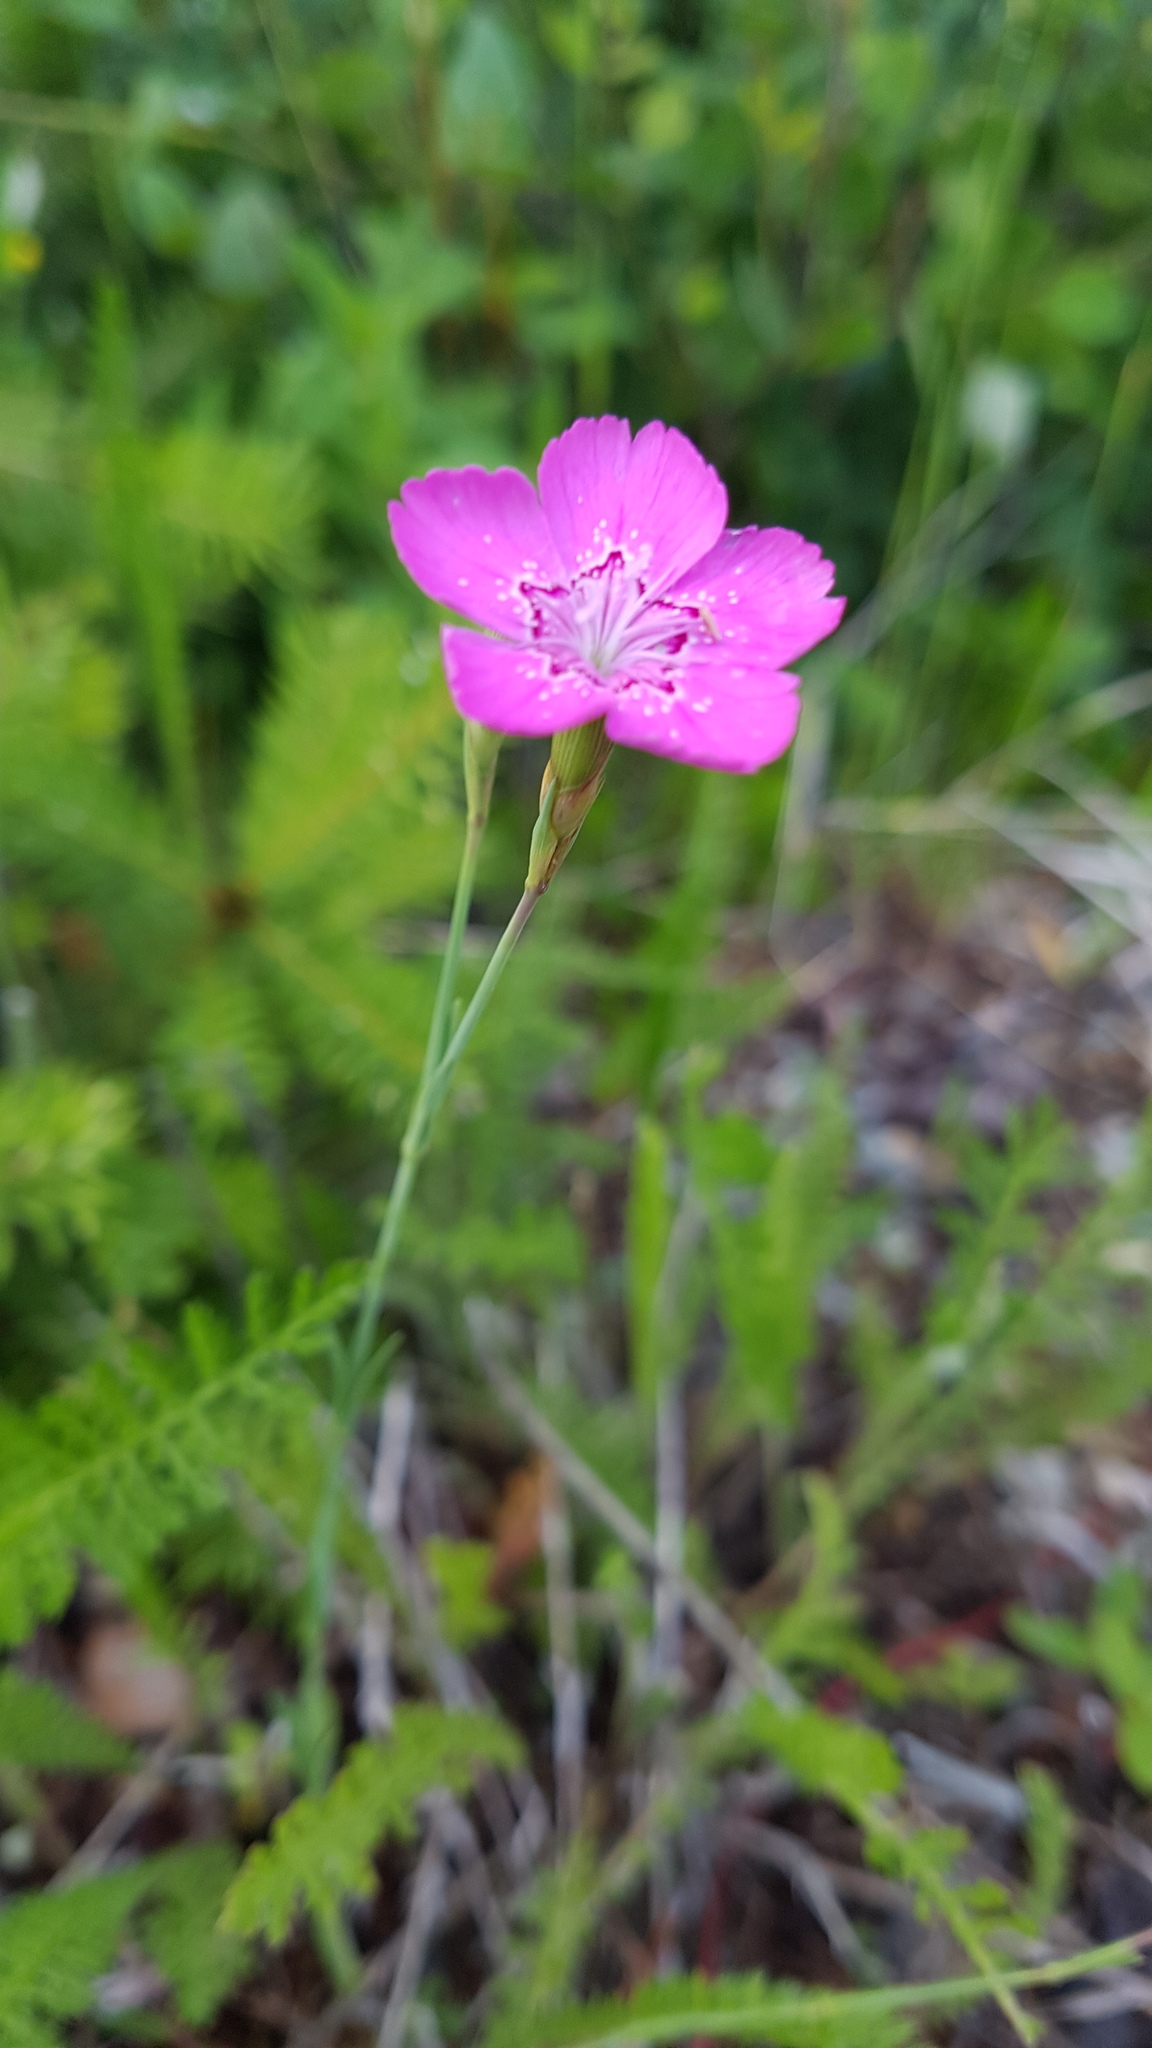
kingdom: Plantae
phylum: Tracheophyta
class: Magnoliopsida
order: Caryophyllales
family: Caryophyllaceae
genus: Dianthus
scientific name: Dianthus deltoides
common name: Maiden pink
